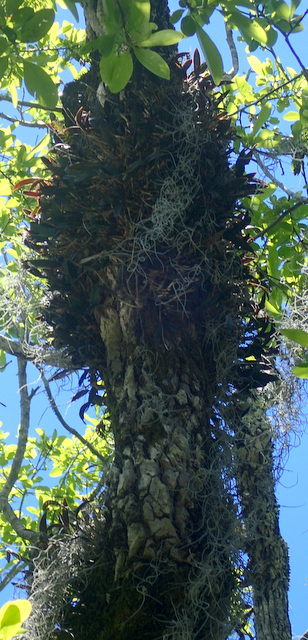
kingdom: Plantae
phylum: Tracheophyta
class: Liliopsida
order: Asparagales
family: Orchidaceae
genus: Epidendrum
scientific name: Epidendrum conopseum
